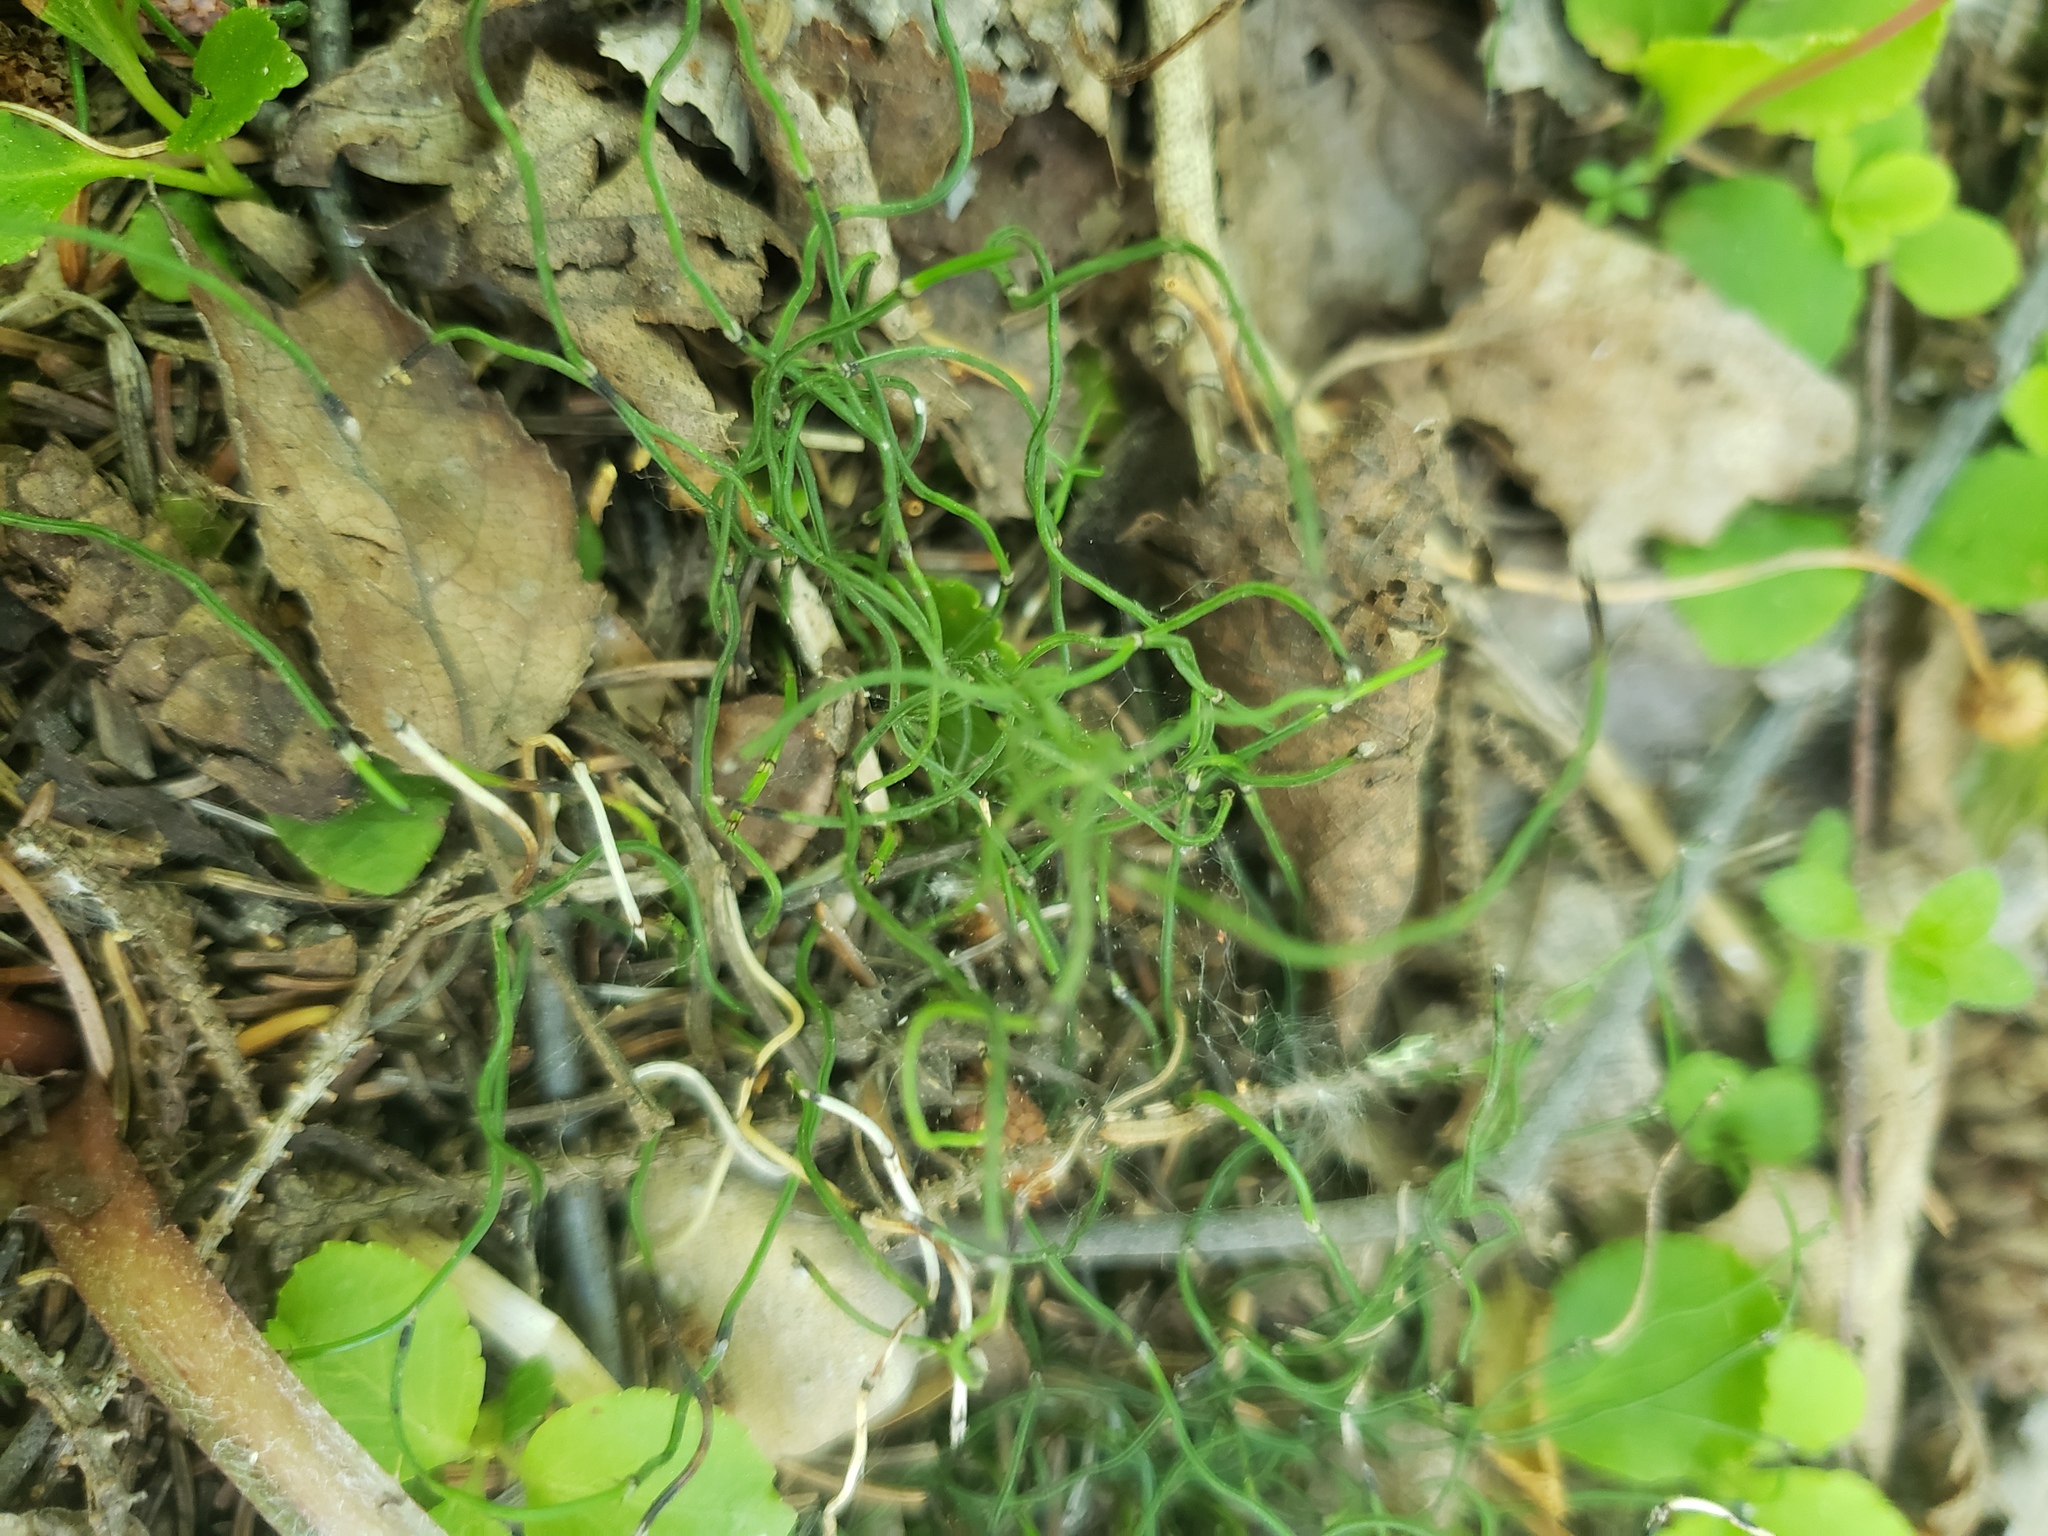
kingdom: Plantae
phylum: Tracheophyta
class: Polypodiopsida
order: Equisetales
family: Equisetaceae
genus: Equisetum
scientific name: Equisetum scirpoides
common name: Delicate horsetail
